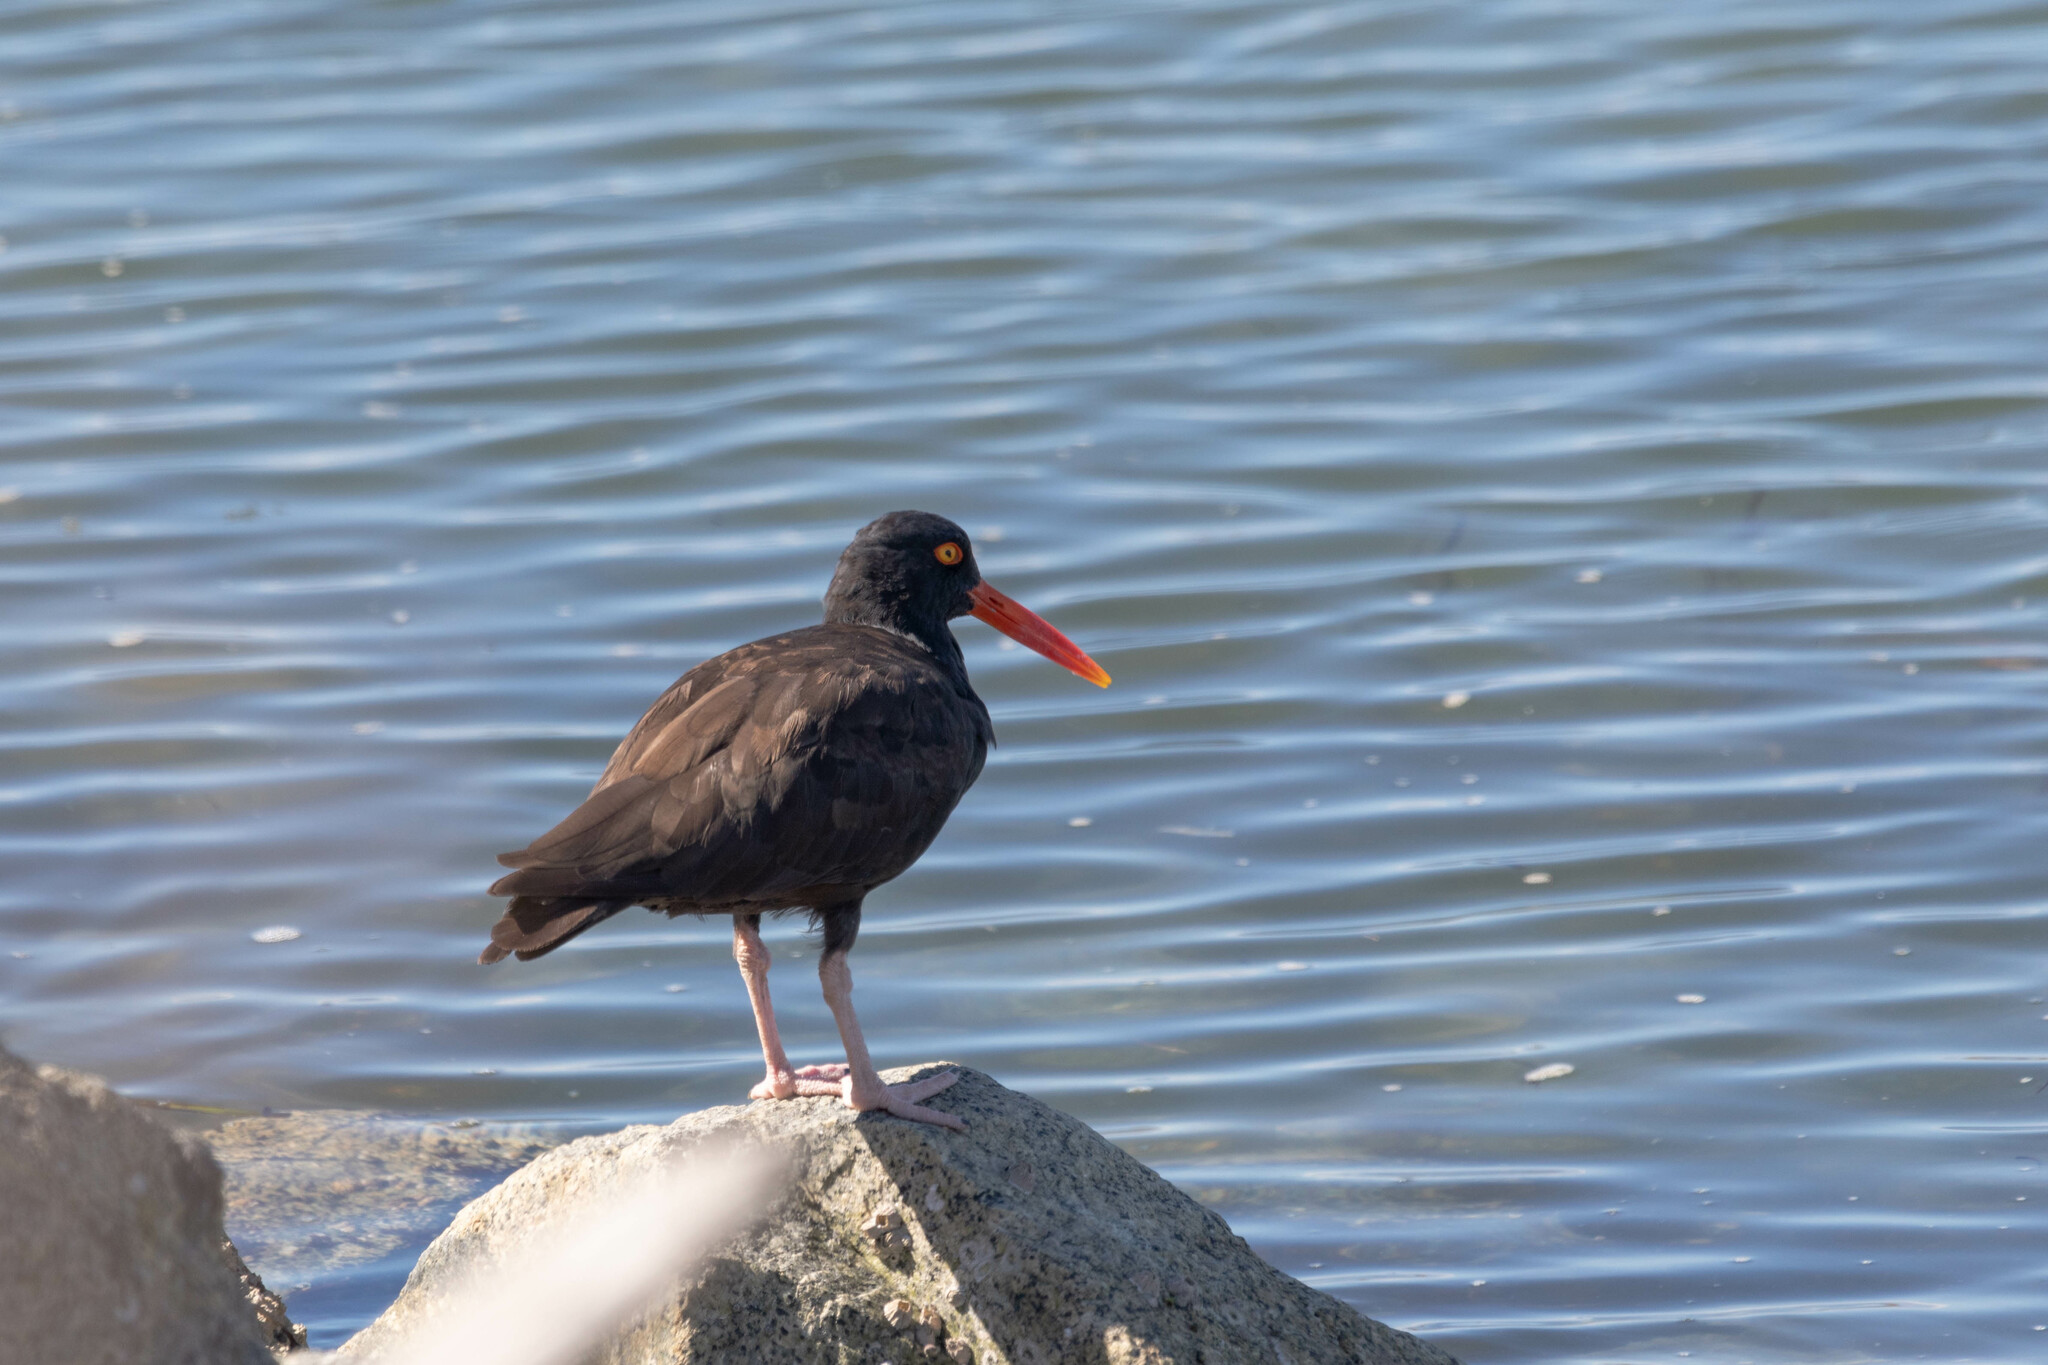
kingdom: Animalia
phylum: Chordata
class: Aves
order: Charadriiformes
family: Haematopodidae
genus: Haematopus
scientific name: Haematopus bachmani
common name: Black oystercatcher
